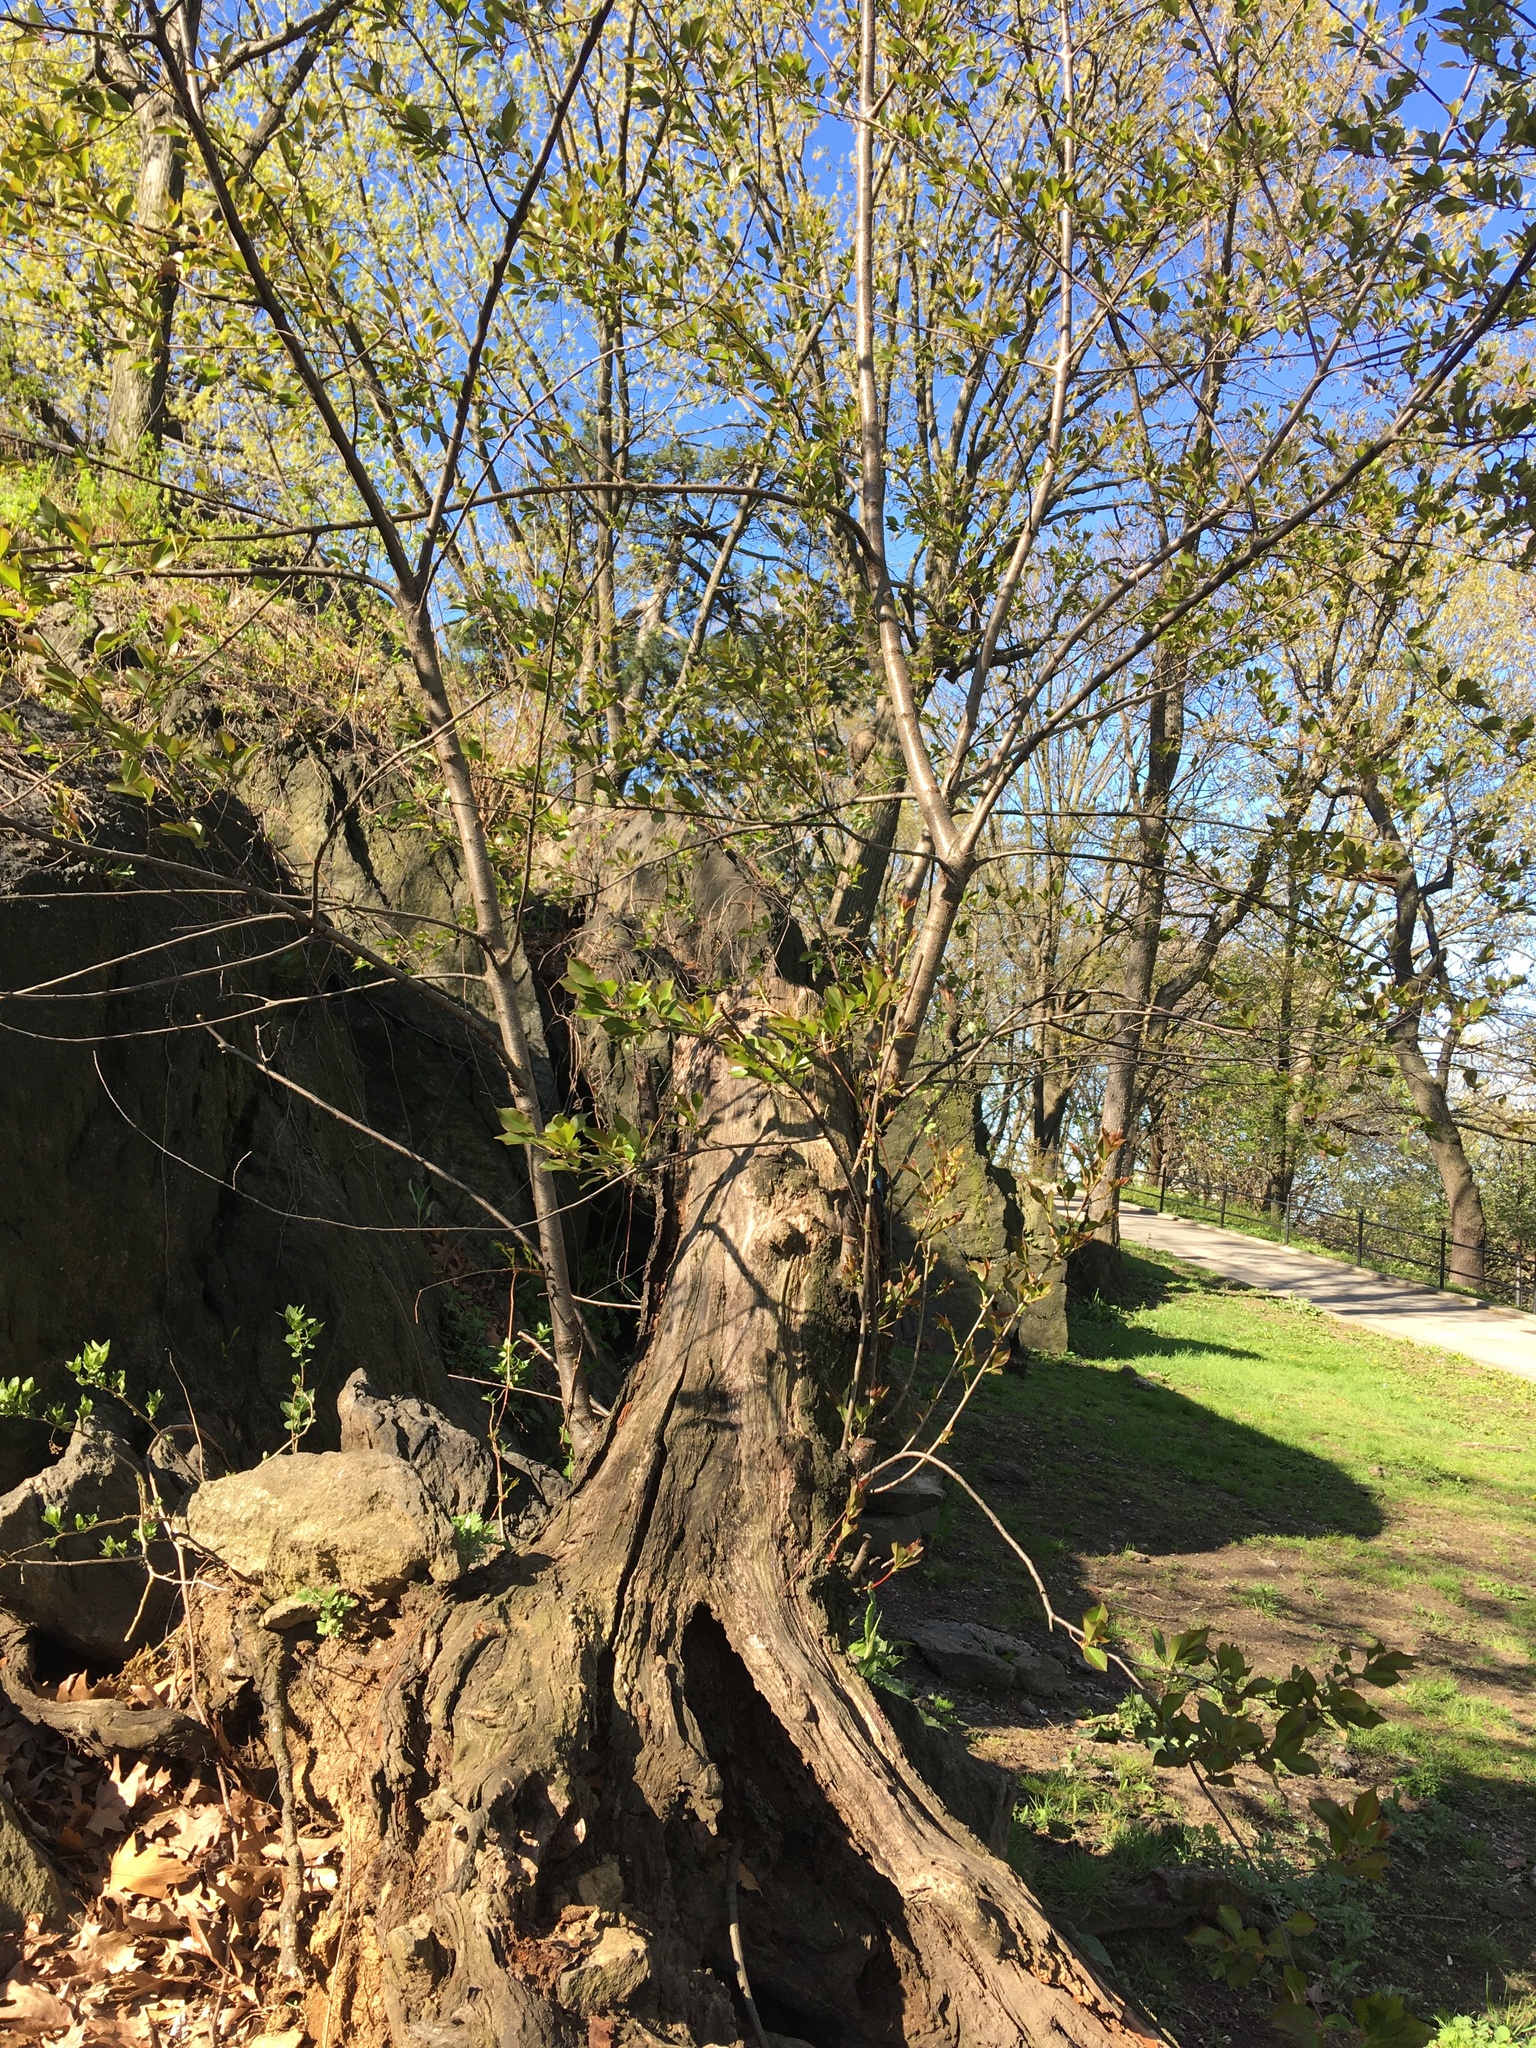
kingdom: Plantae
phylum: Tracheophyta
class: Magnoliopsida
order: Rosales
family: Rosaceae
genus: Prunus
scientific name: Prunus serotina
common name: Black cherry
